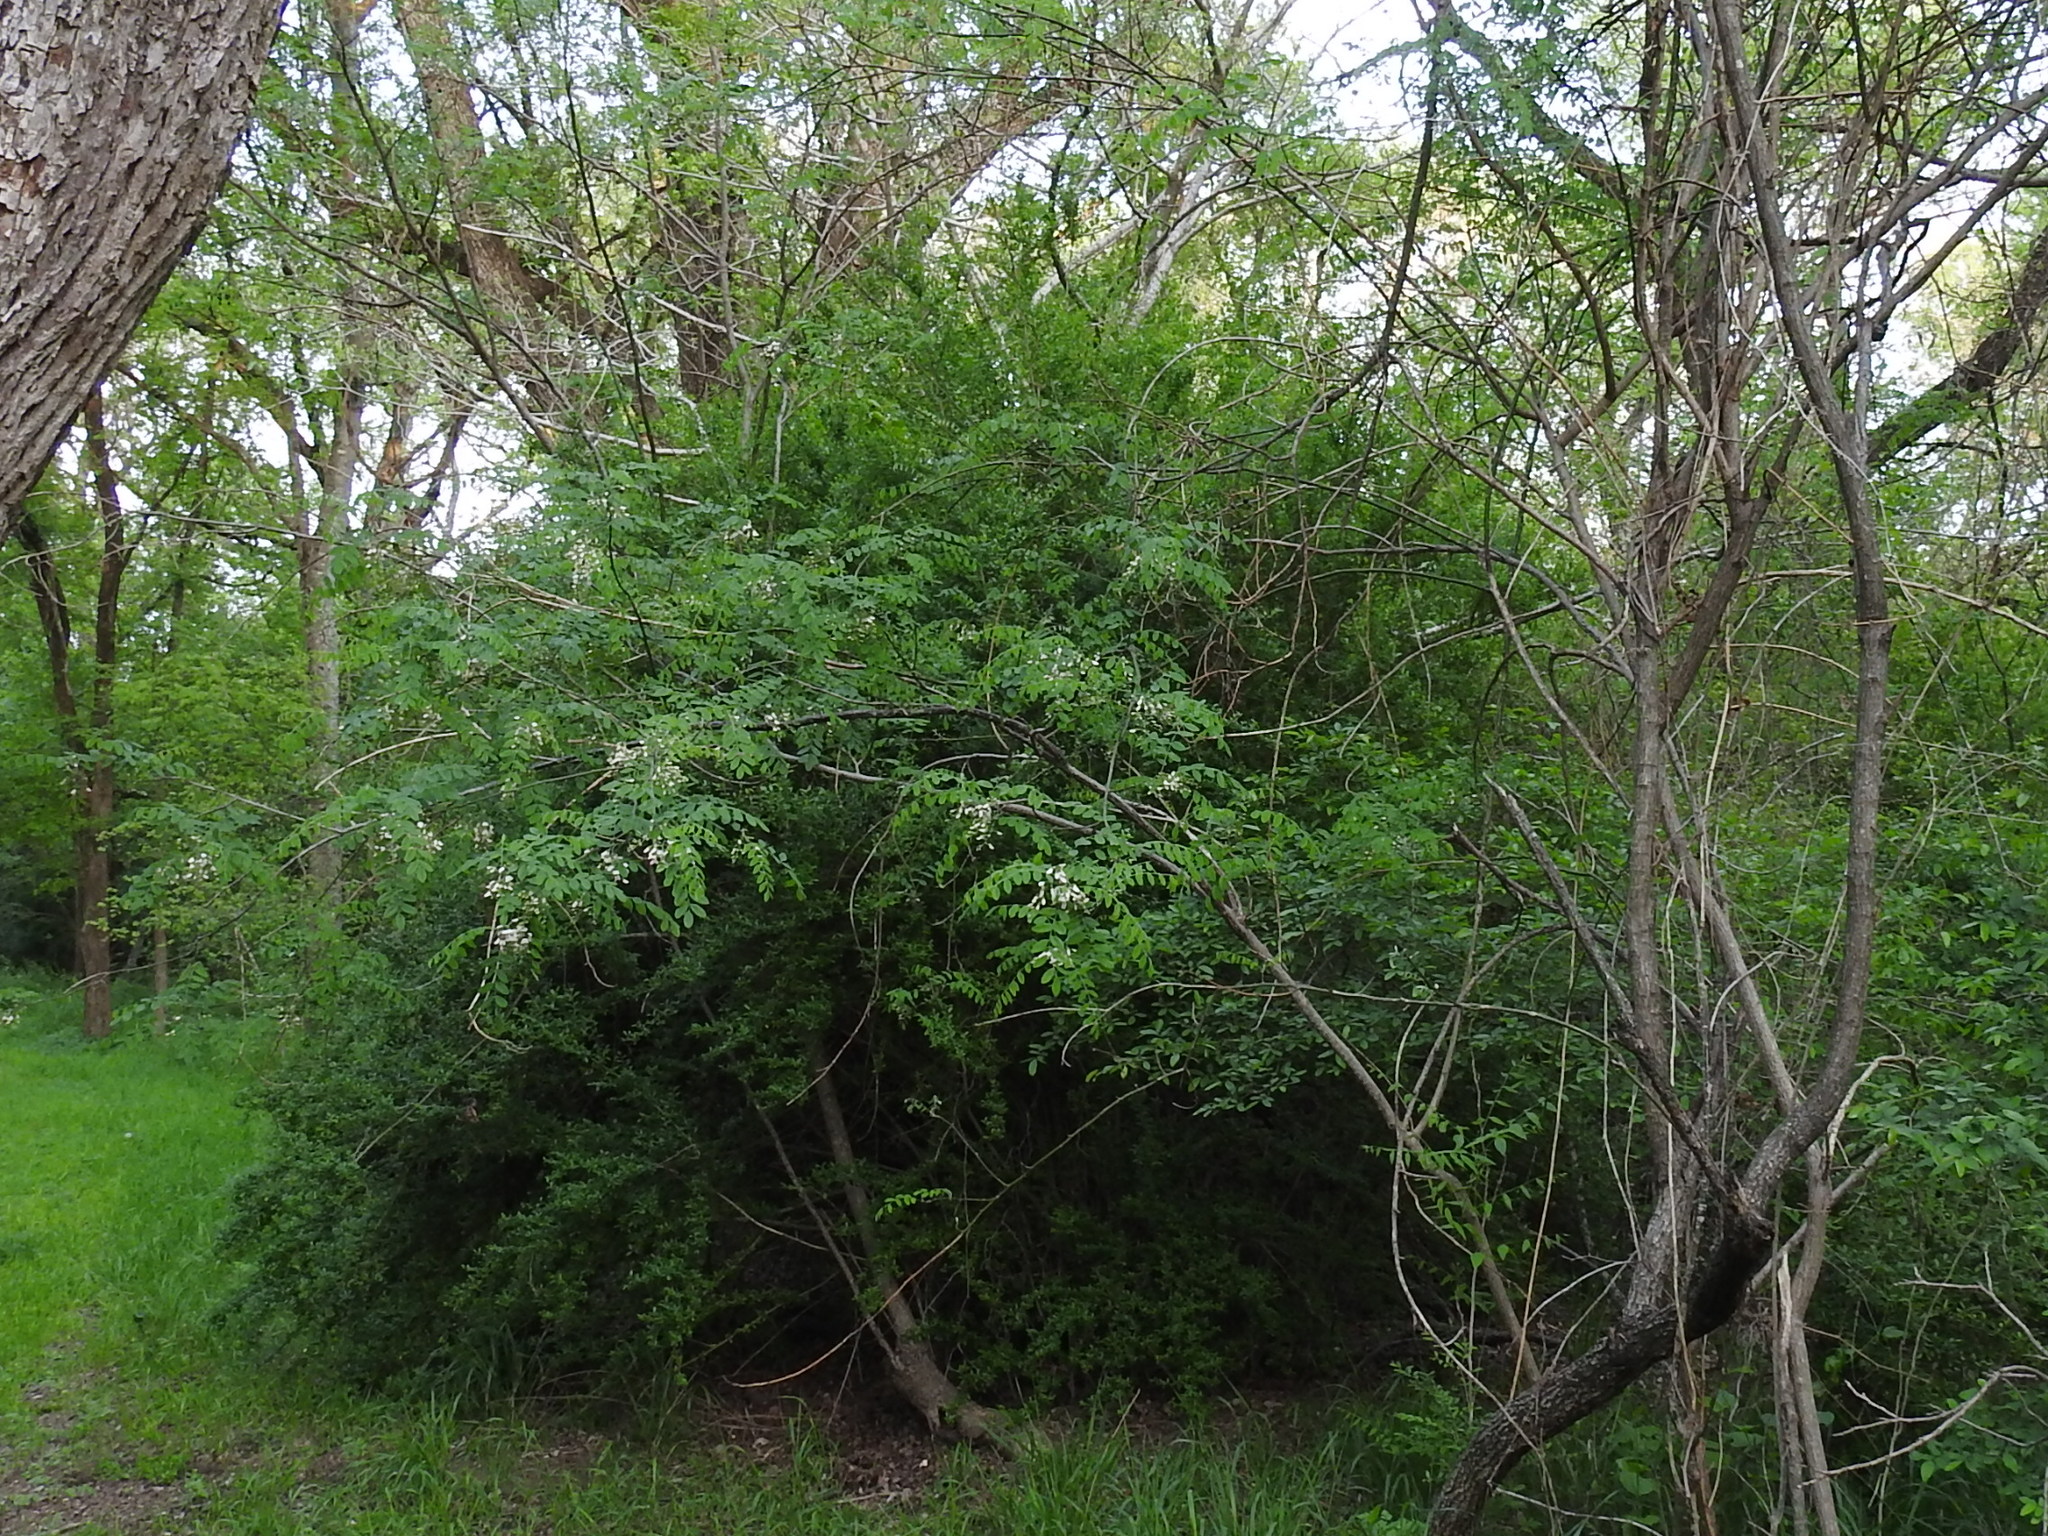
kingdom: Plantae
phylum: Tracheophyta
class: Magnoliopsida
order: Fabales
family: Fabaceae
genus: Styphnolobium
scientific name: Styphnolobium affine
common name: Texas sophora
